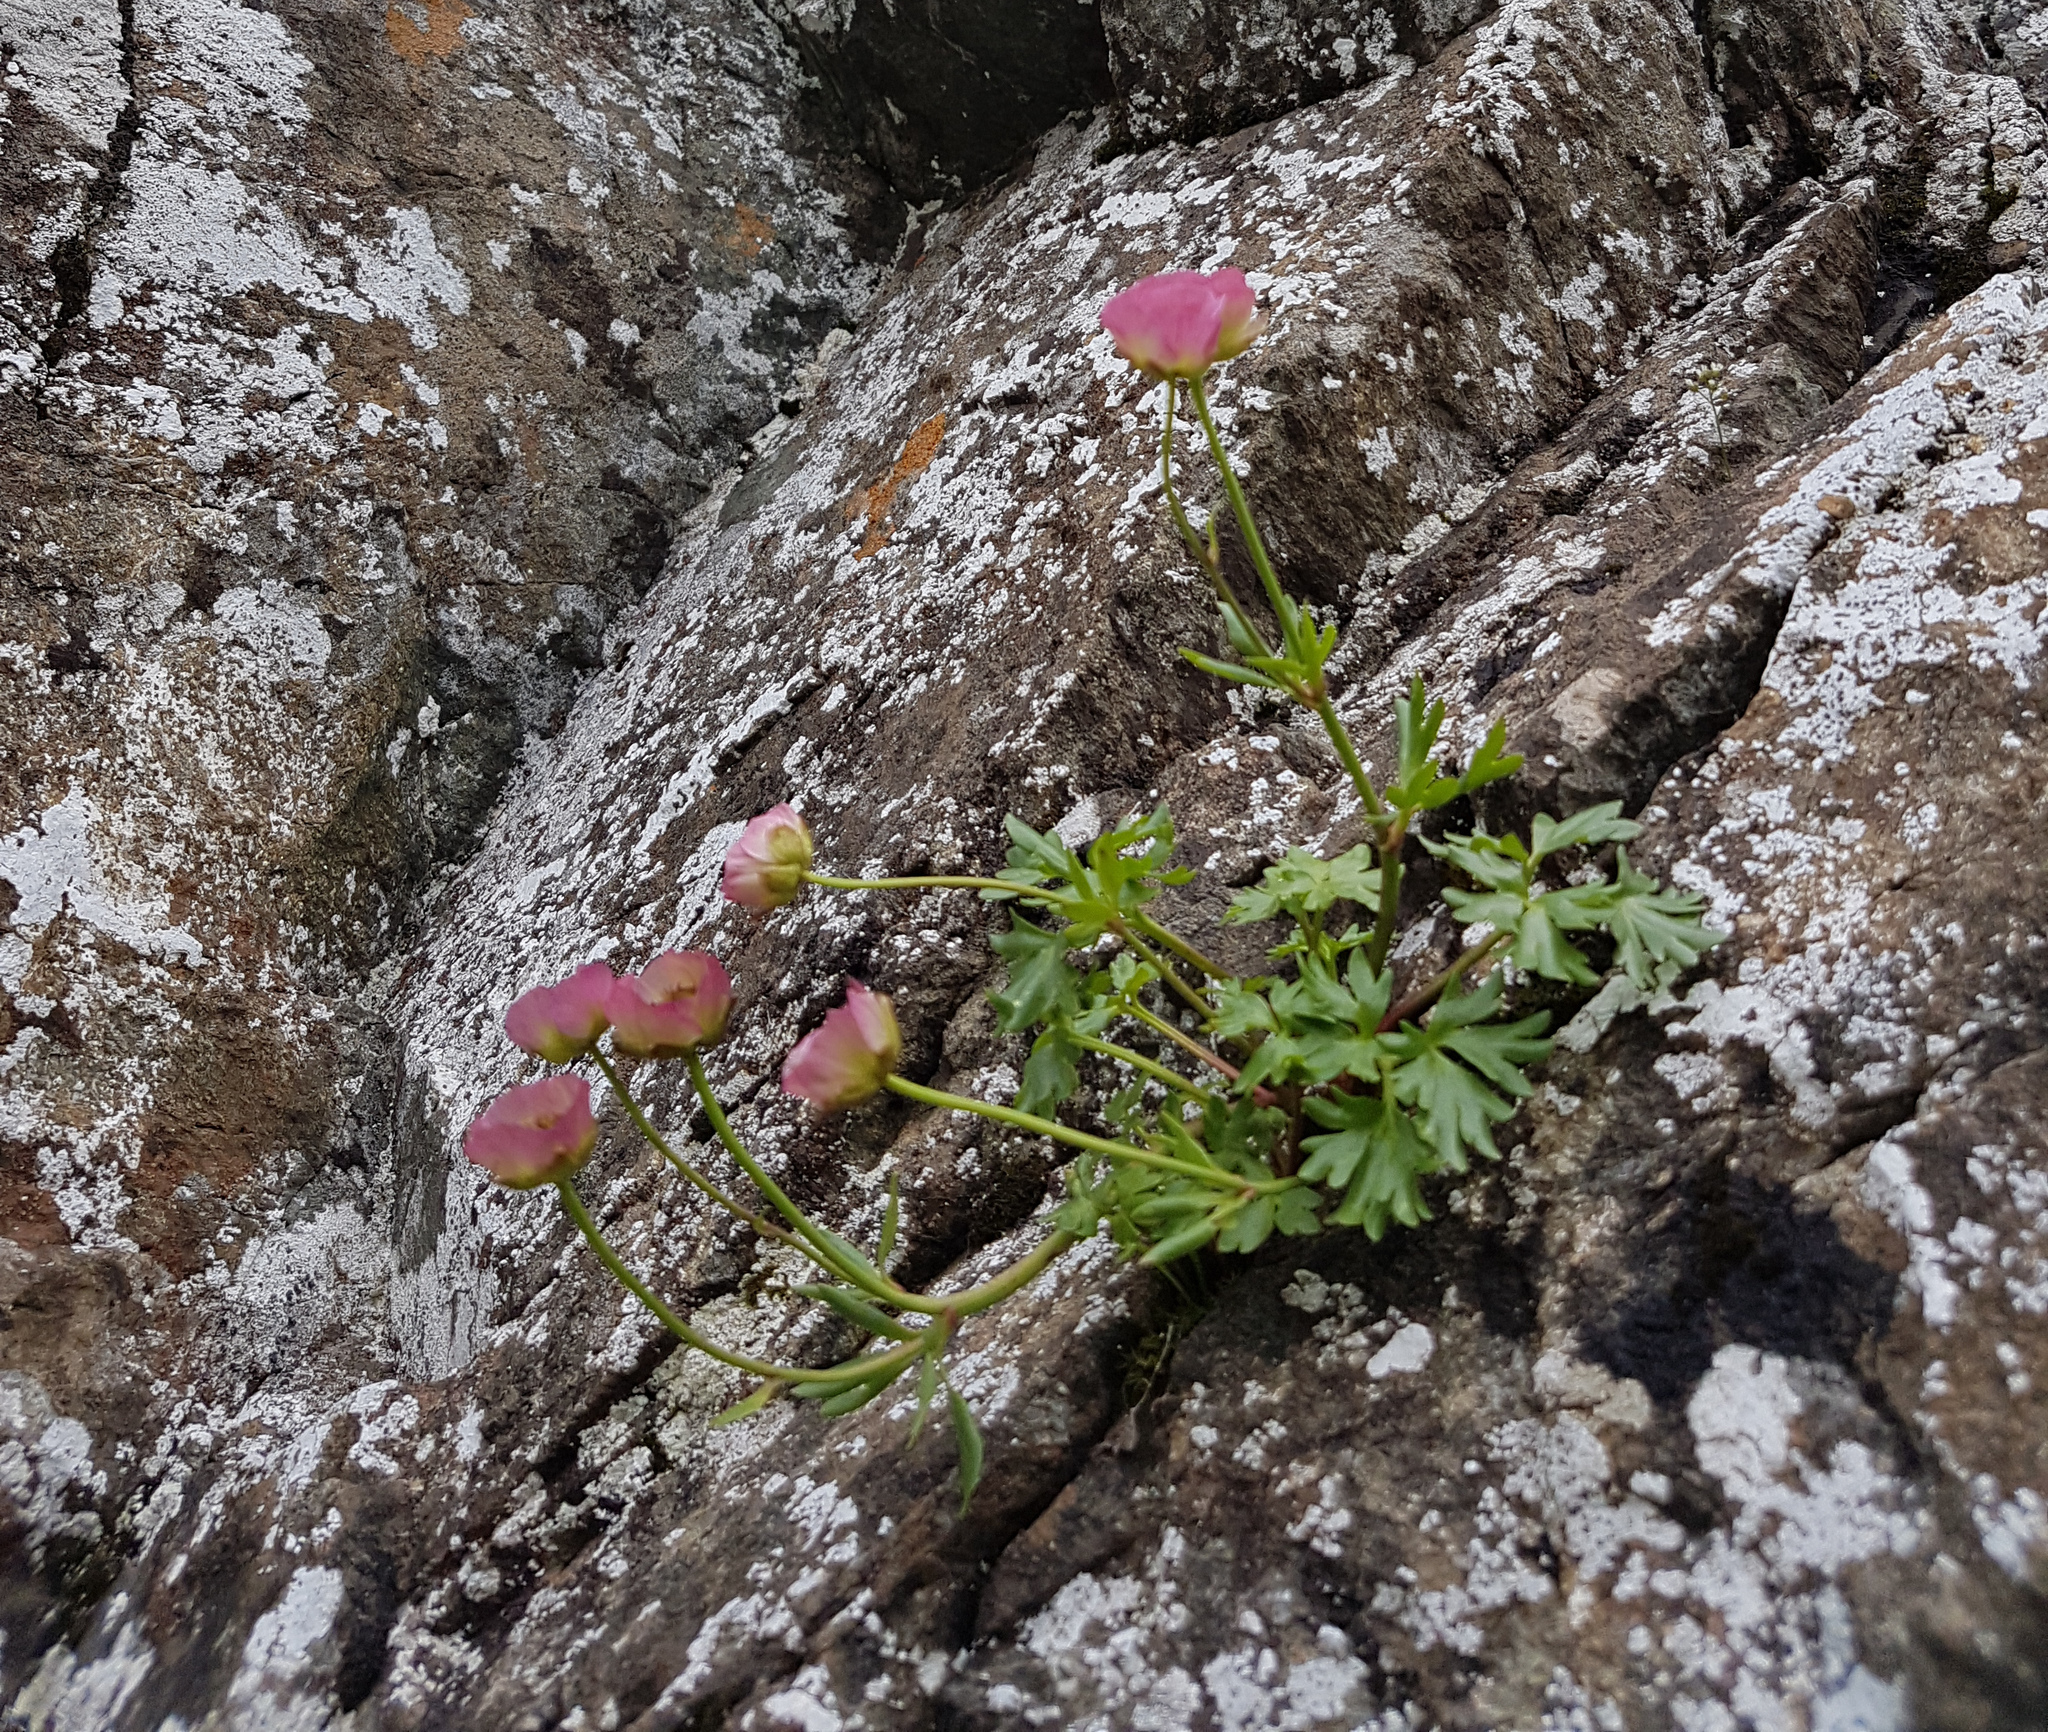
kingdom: Plantae
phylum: Tracheophyta
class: Magnoliopsida
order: Ranunculales
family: Ranunculaceae
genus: Ranunculus
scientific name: Ranunculus glacialis
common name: Glacier buttercup
